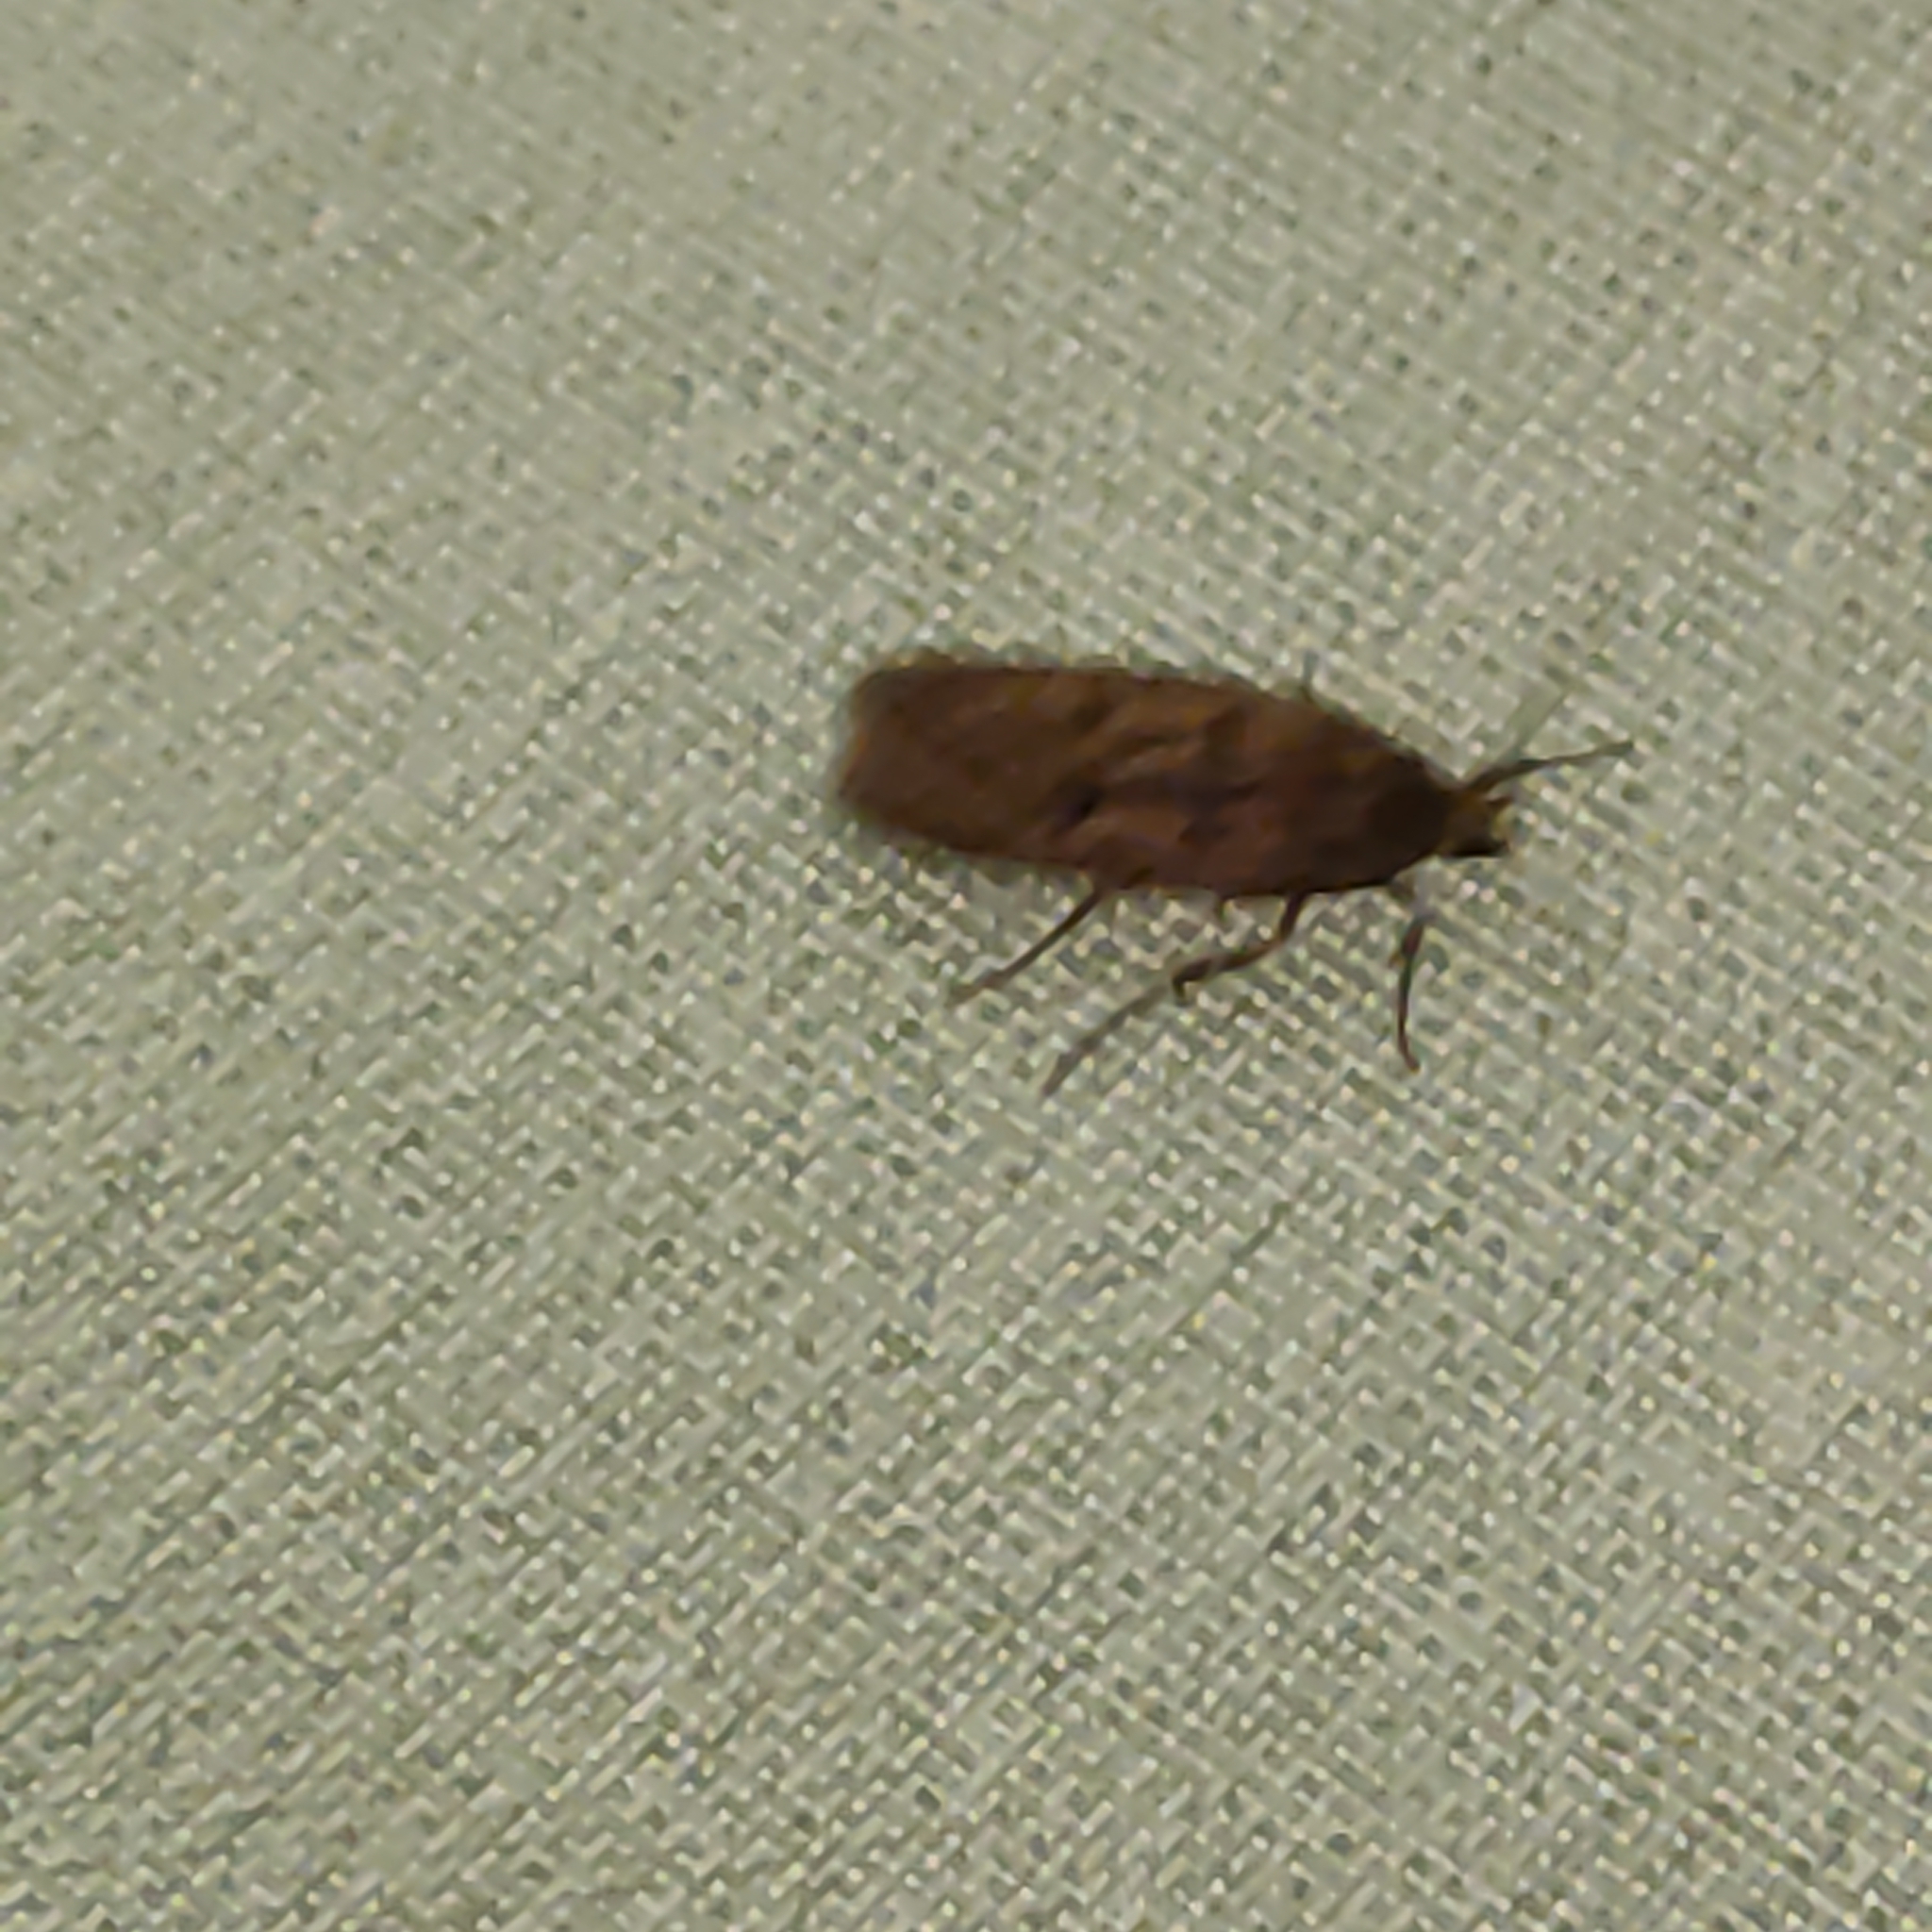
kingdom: Animalia
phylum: Arthropoda
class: Insecta
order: Lepidoptera
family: Oecophoridae
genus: Hofmannophila
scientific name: Hofmannophila pseudospretella
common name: Brown house moth
